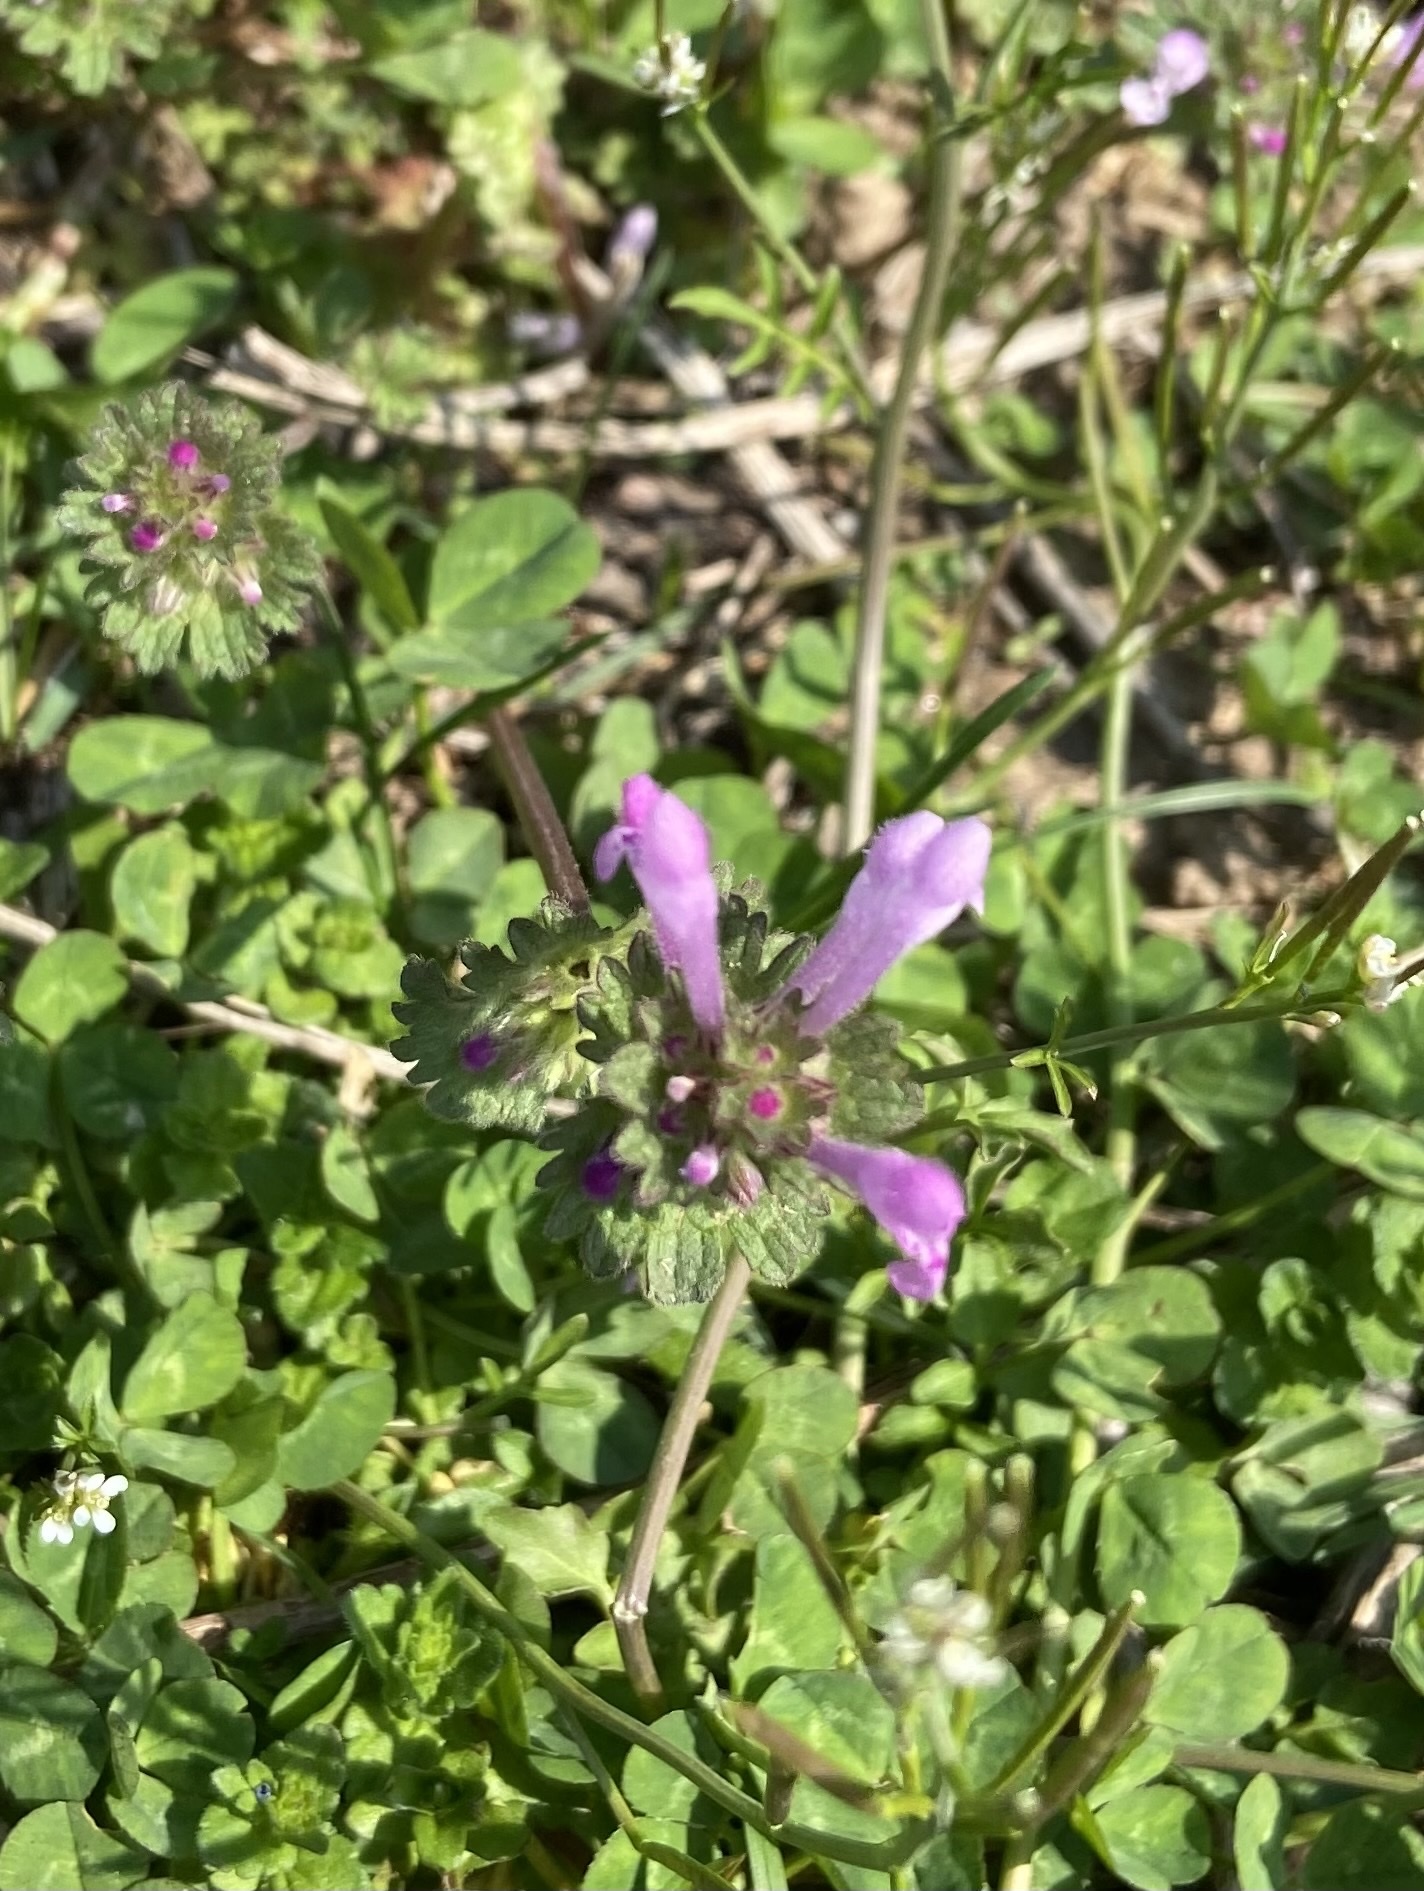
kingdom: Plantae
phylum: Tracheophyta
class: Magnoliopsida
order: Lamiales
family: Lamiaceae
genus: Lamium
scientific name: Lamium amplexicaule
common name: Henbit dead-nettle
